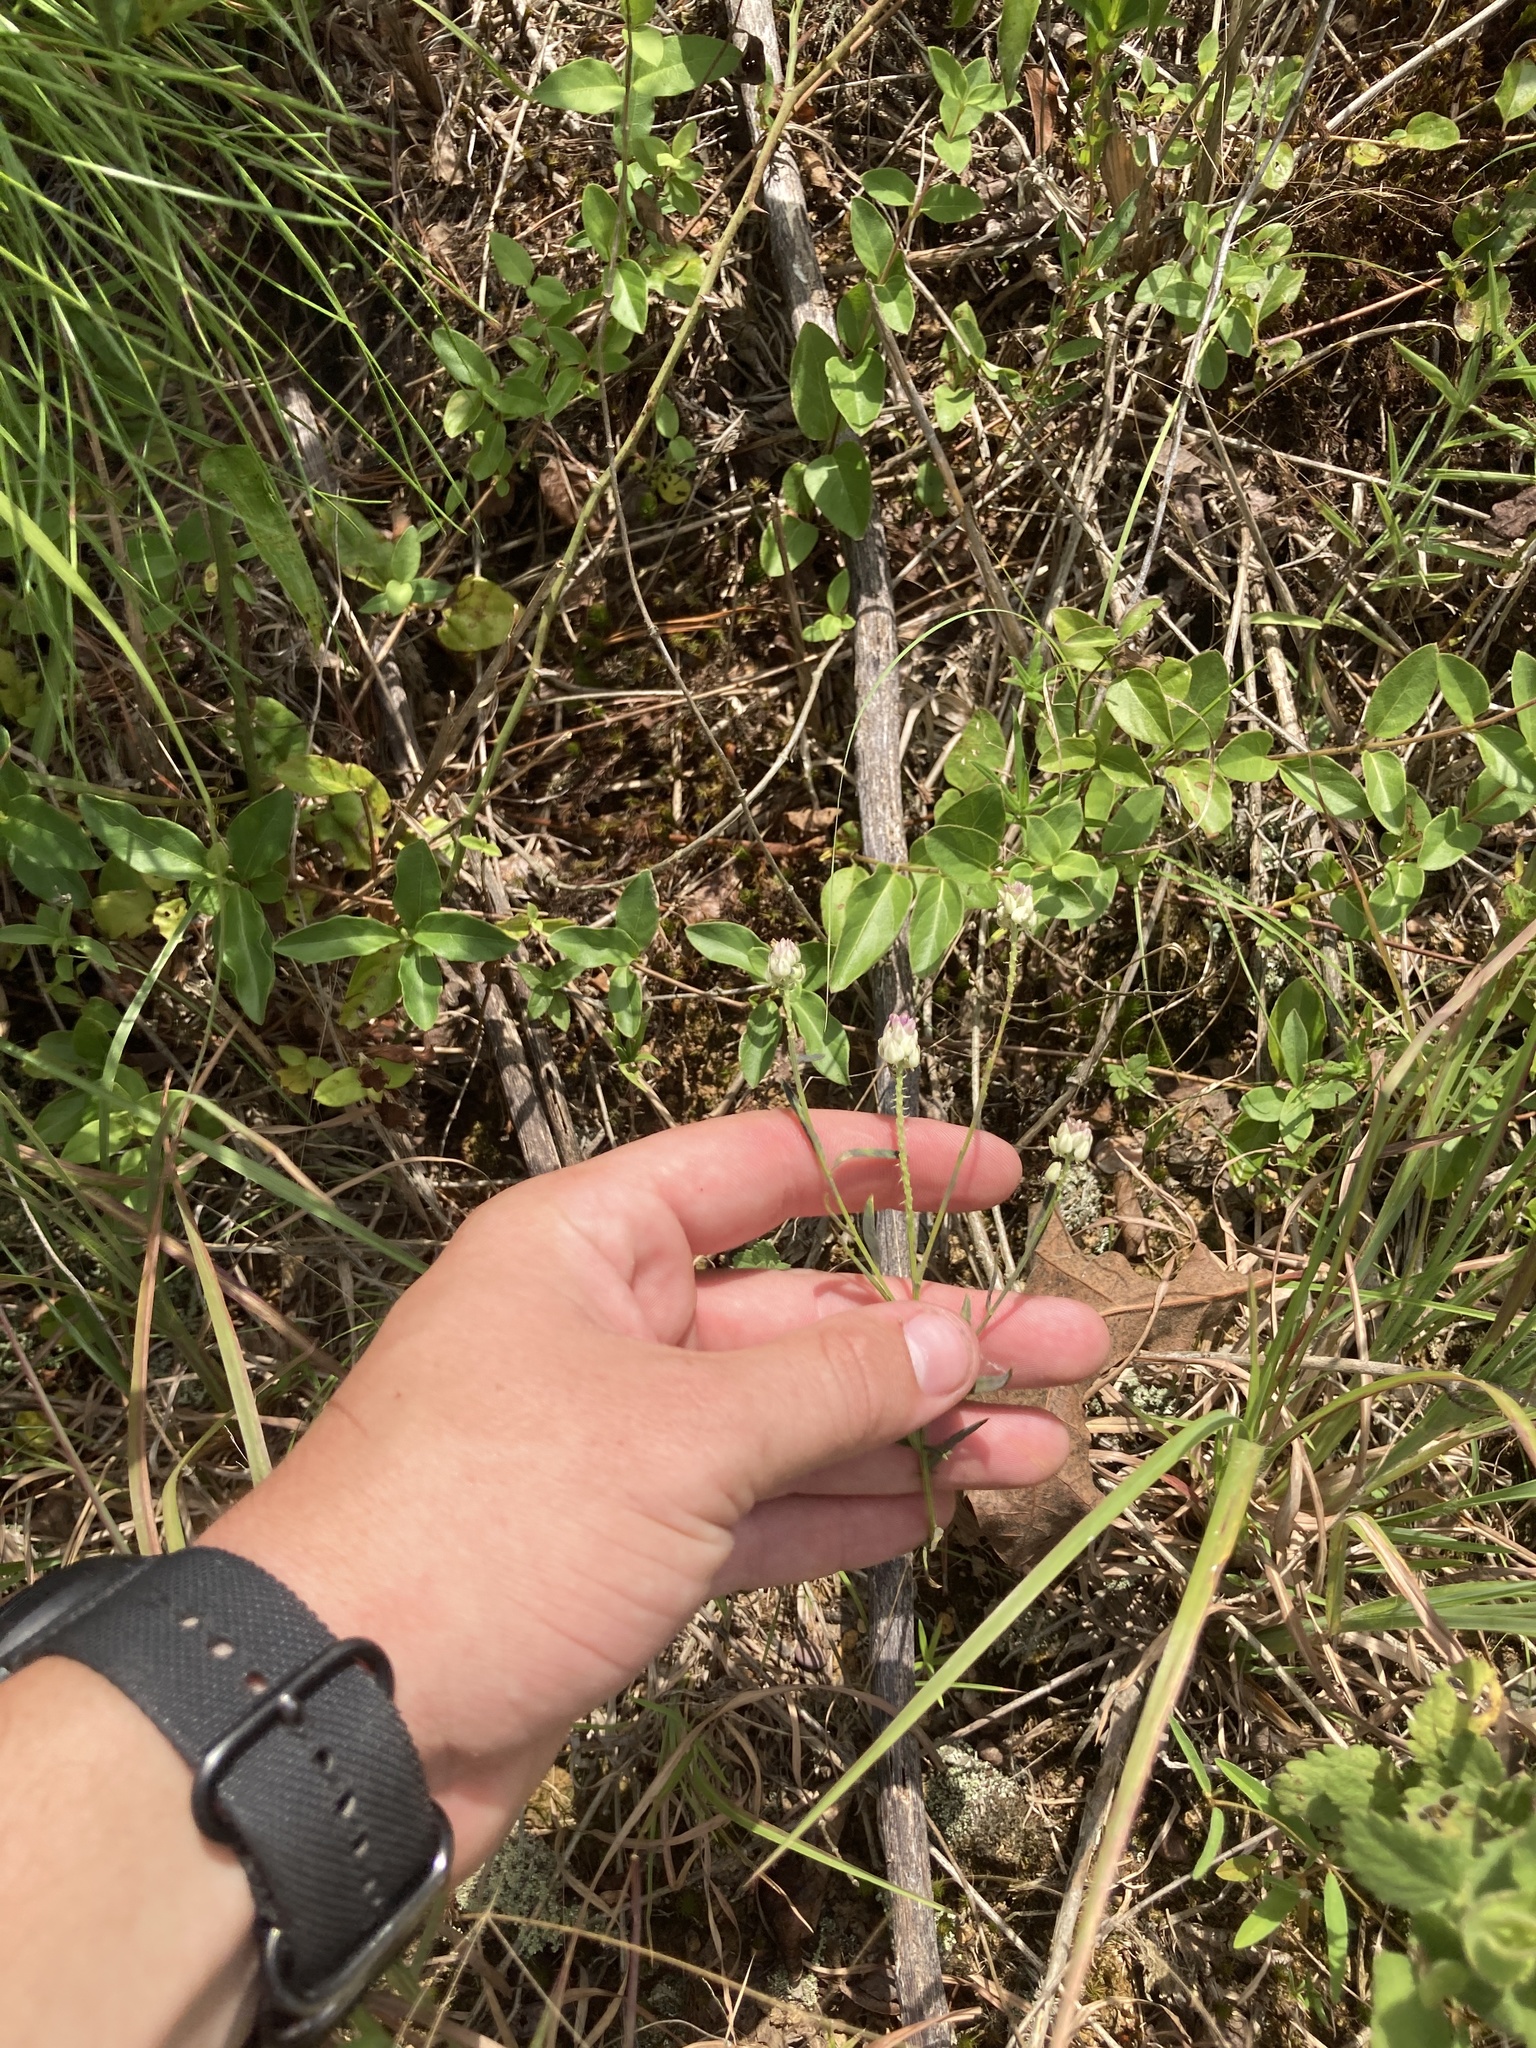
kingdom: Plantae
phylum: Tracheophyta
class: Magnoliopsida
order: Fabales
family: Polygalaceae
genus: Polygala
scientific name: Polygala sanguinea
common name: Blood milkwort
